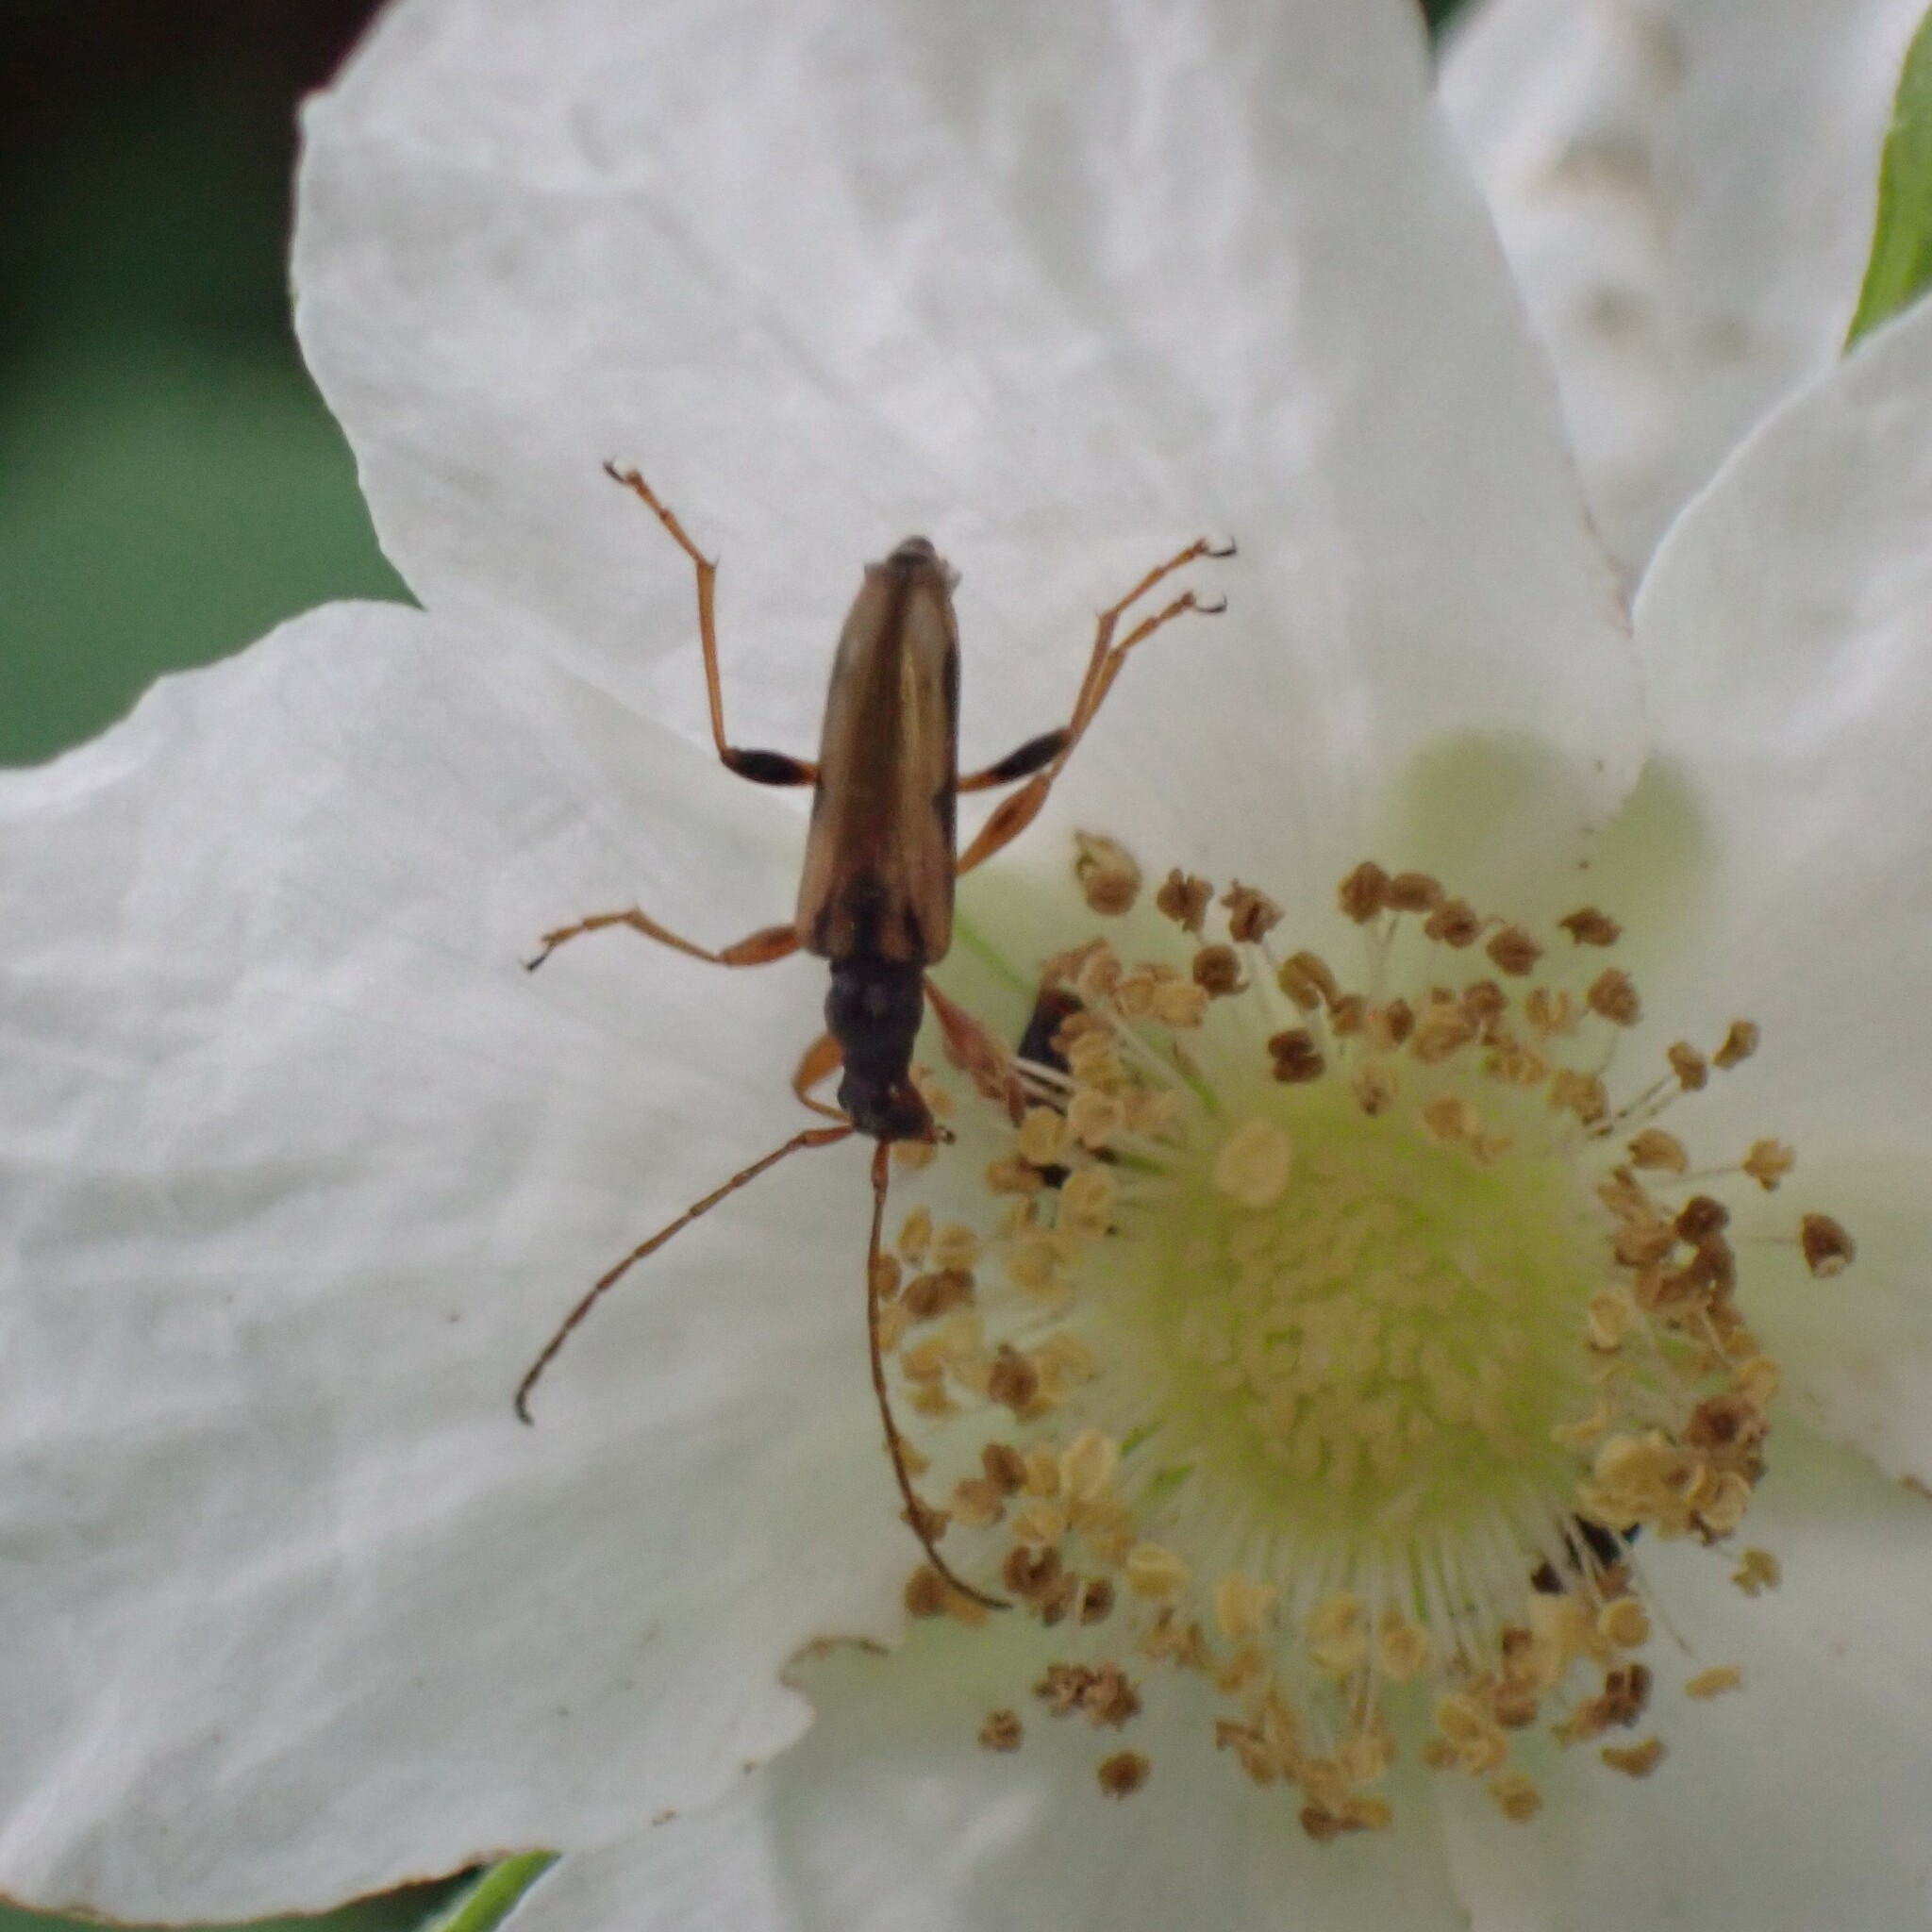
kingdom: Animalia
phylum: Arthropoda
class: Insecta
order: Coleoptera
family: Cerambycidae
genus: Pidonia
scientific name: Pidonia scripta
